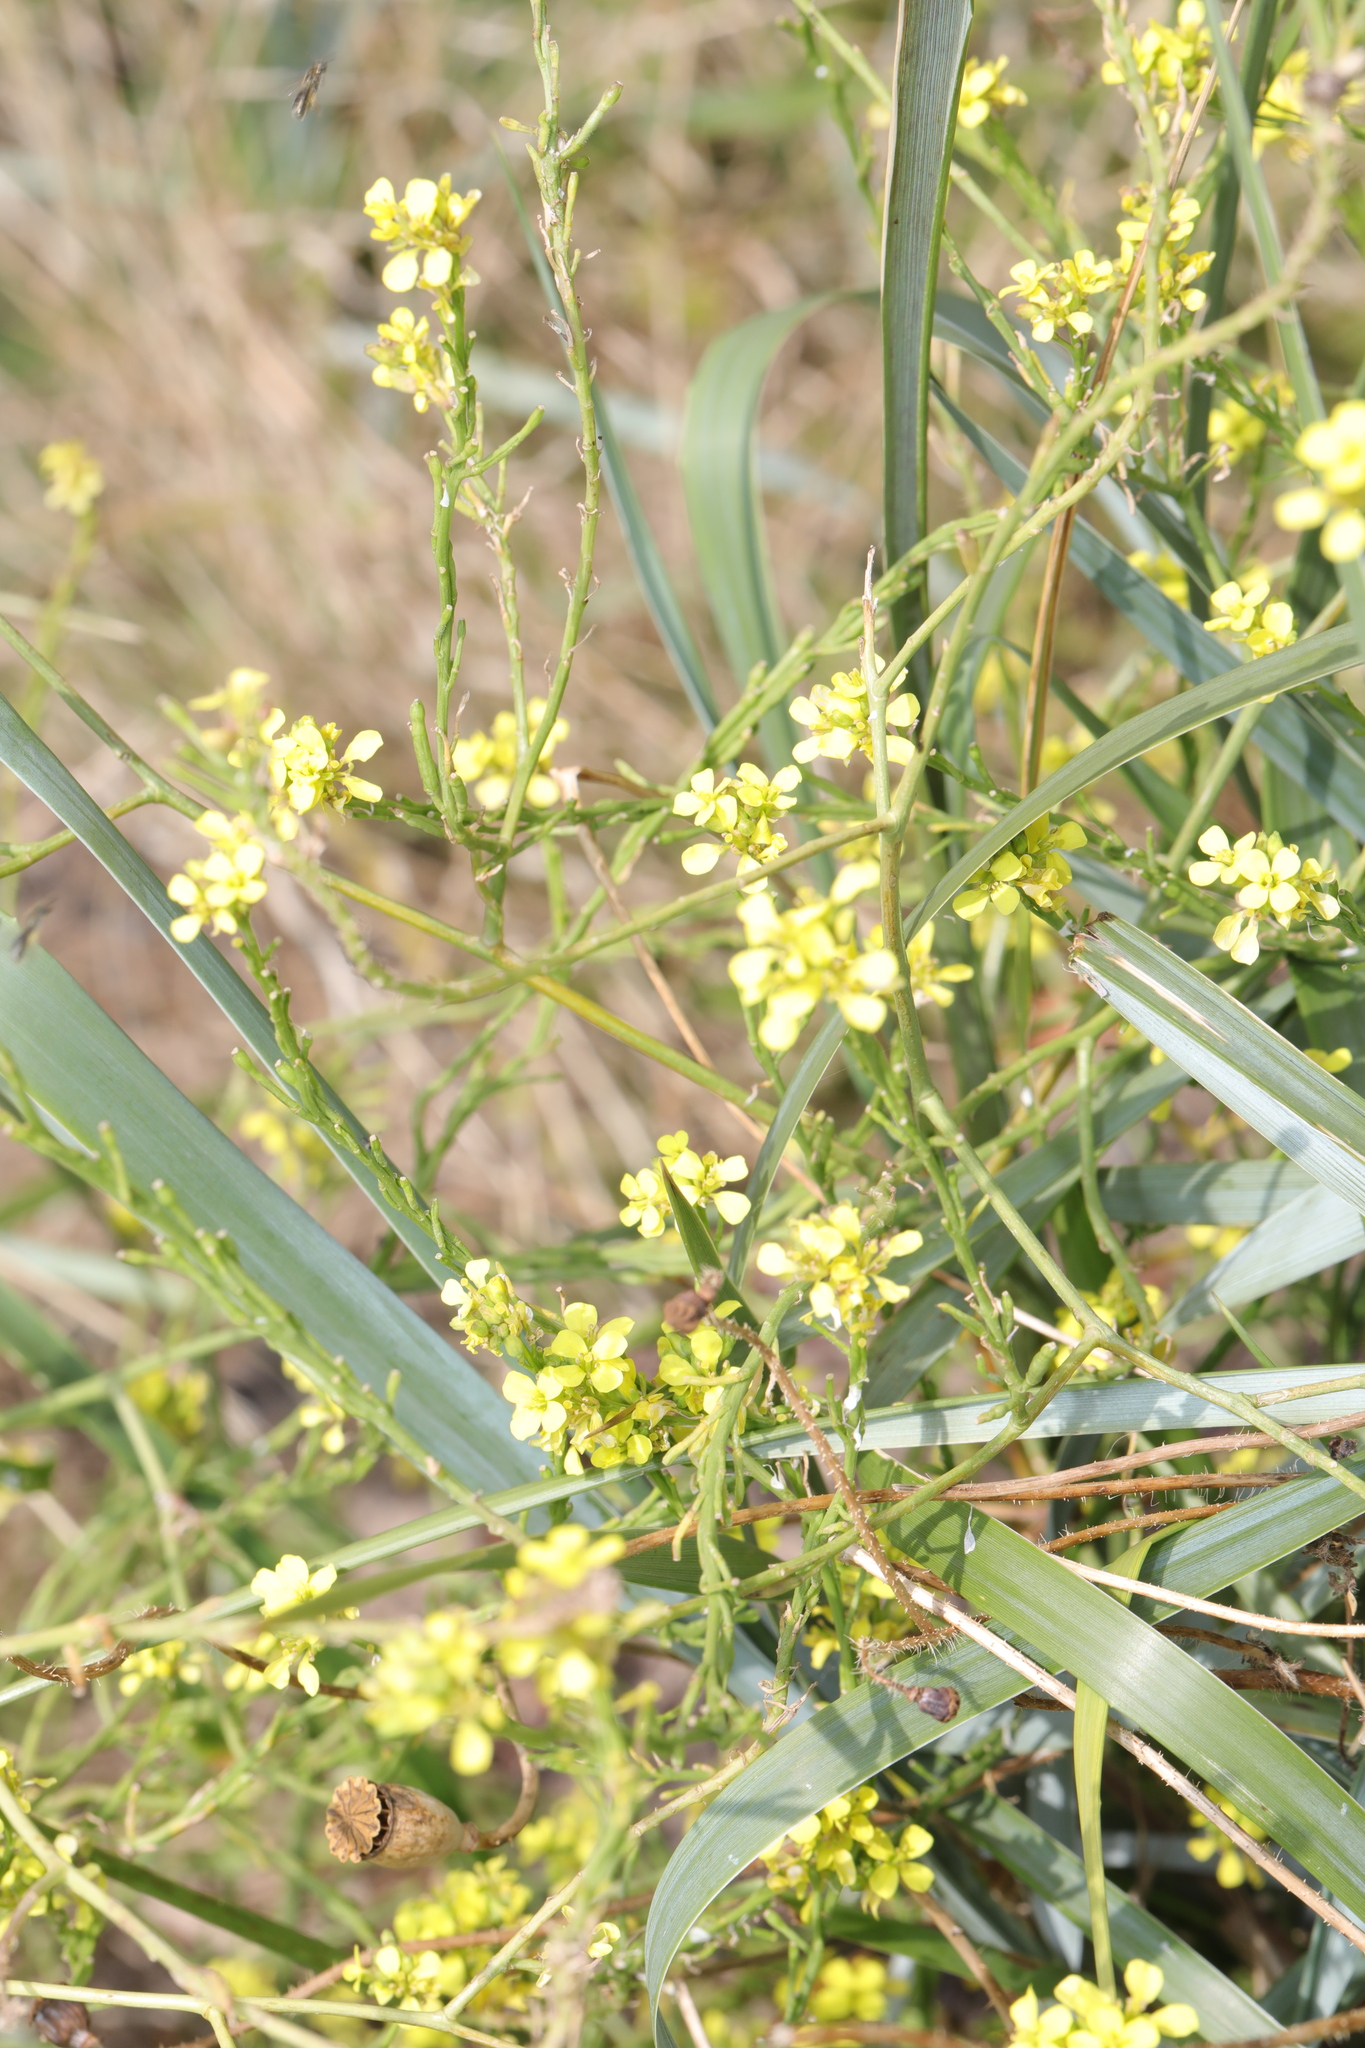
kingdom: Plantae
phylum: Tracheophyta
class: Magnoliopsida
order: Brassicales
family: Brassicaceae
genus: Hirschfeldia
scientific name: Hirschfeldia incana
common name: Hoary mustard
